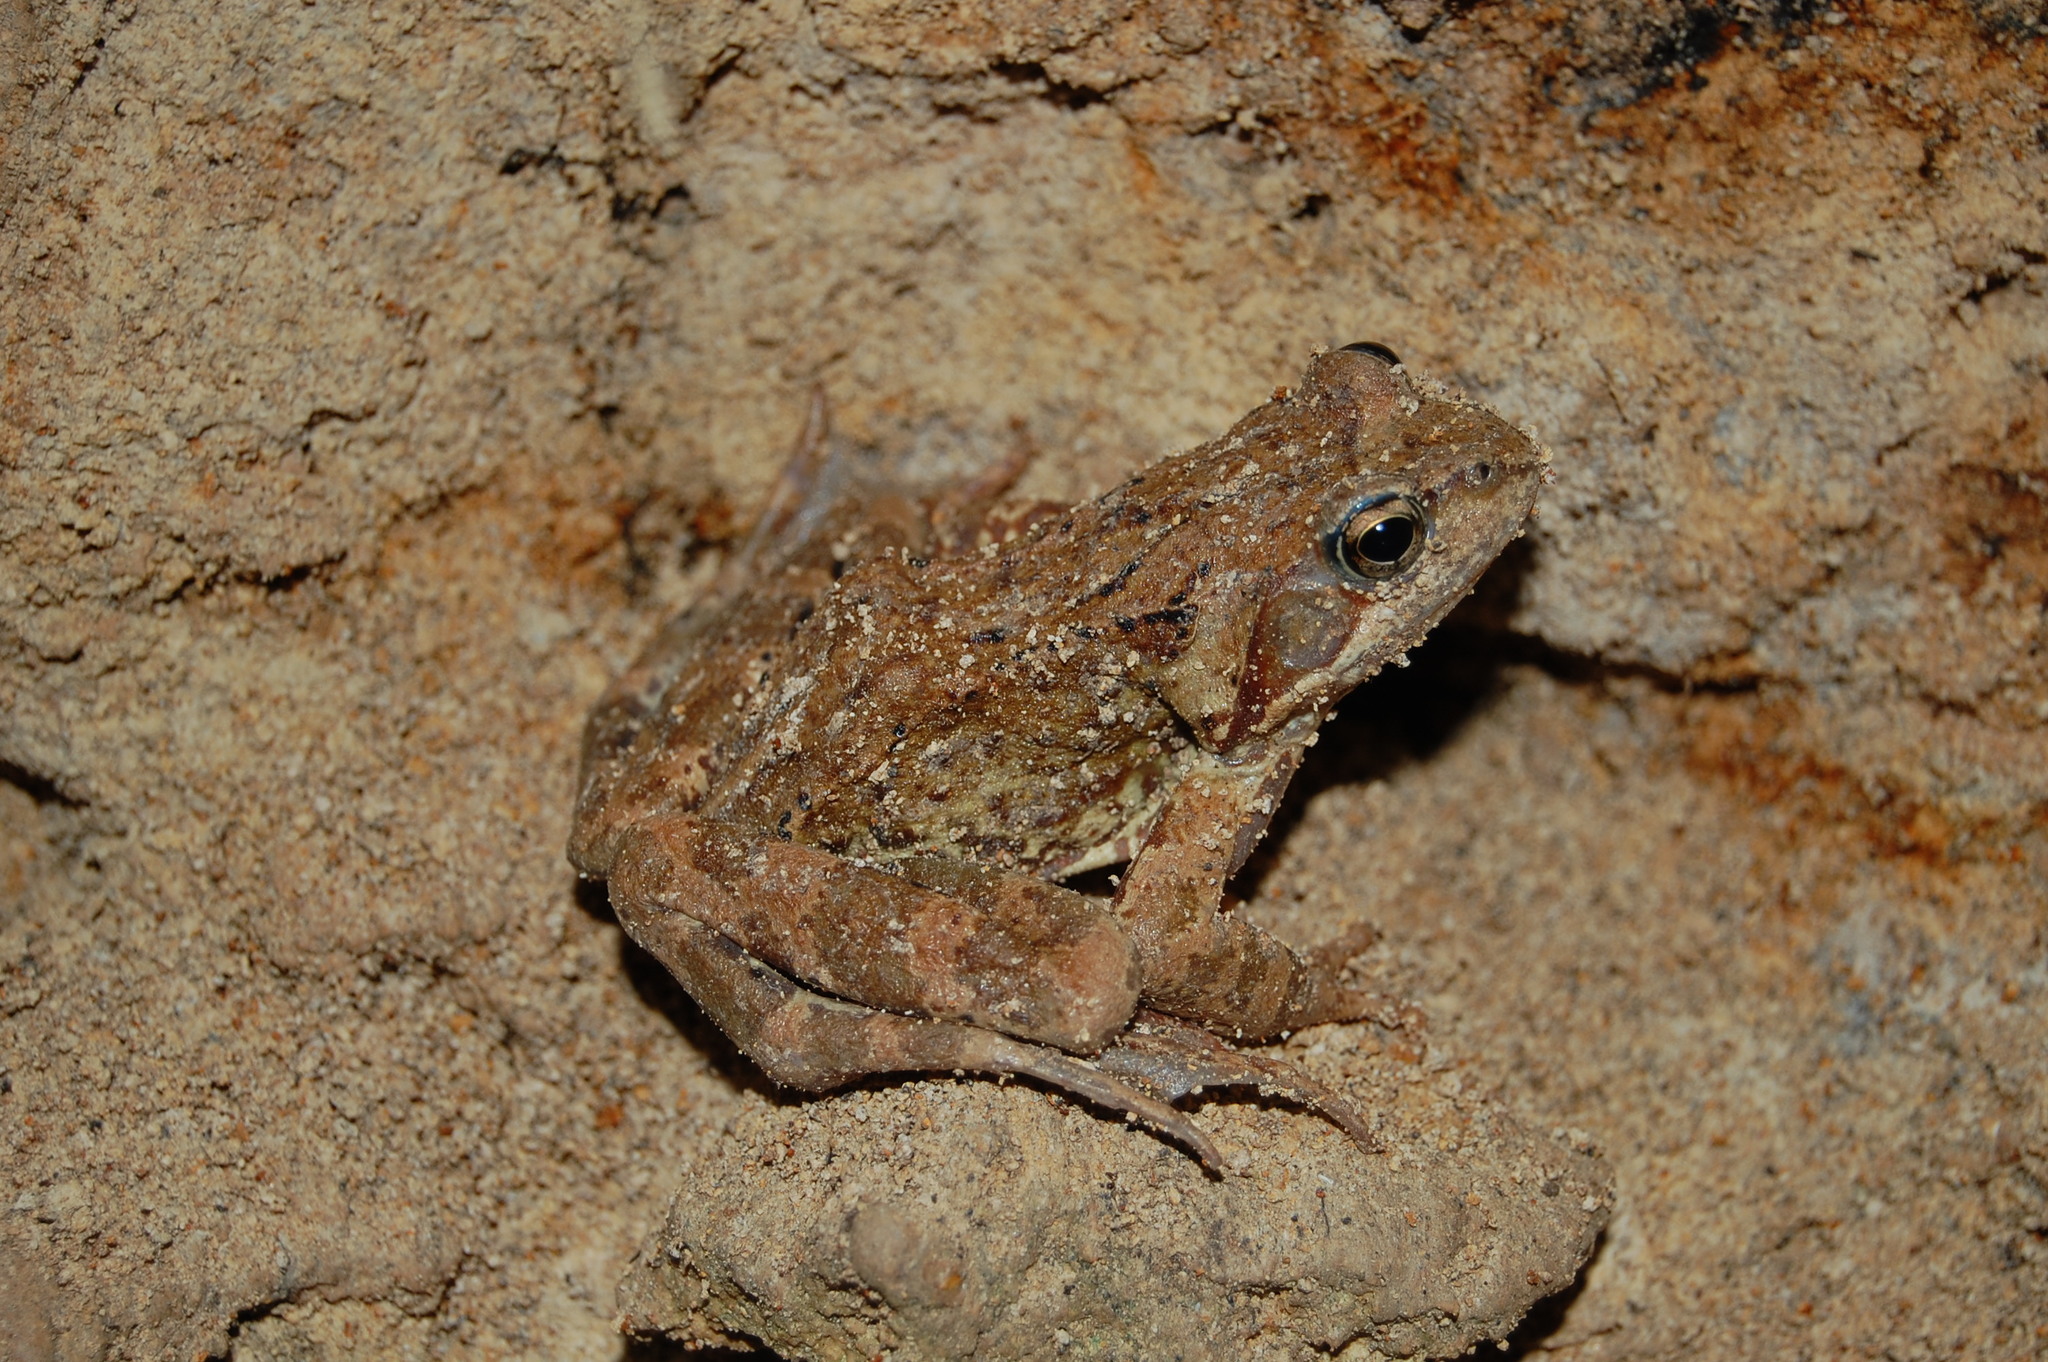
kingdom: Animalia
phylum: Chordata
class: Amphibia
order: Anura
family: Ranidae
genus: Rana
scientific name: Rana temporaria
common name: Common frog
